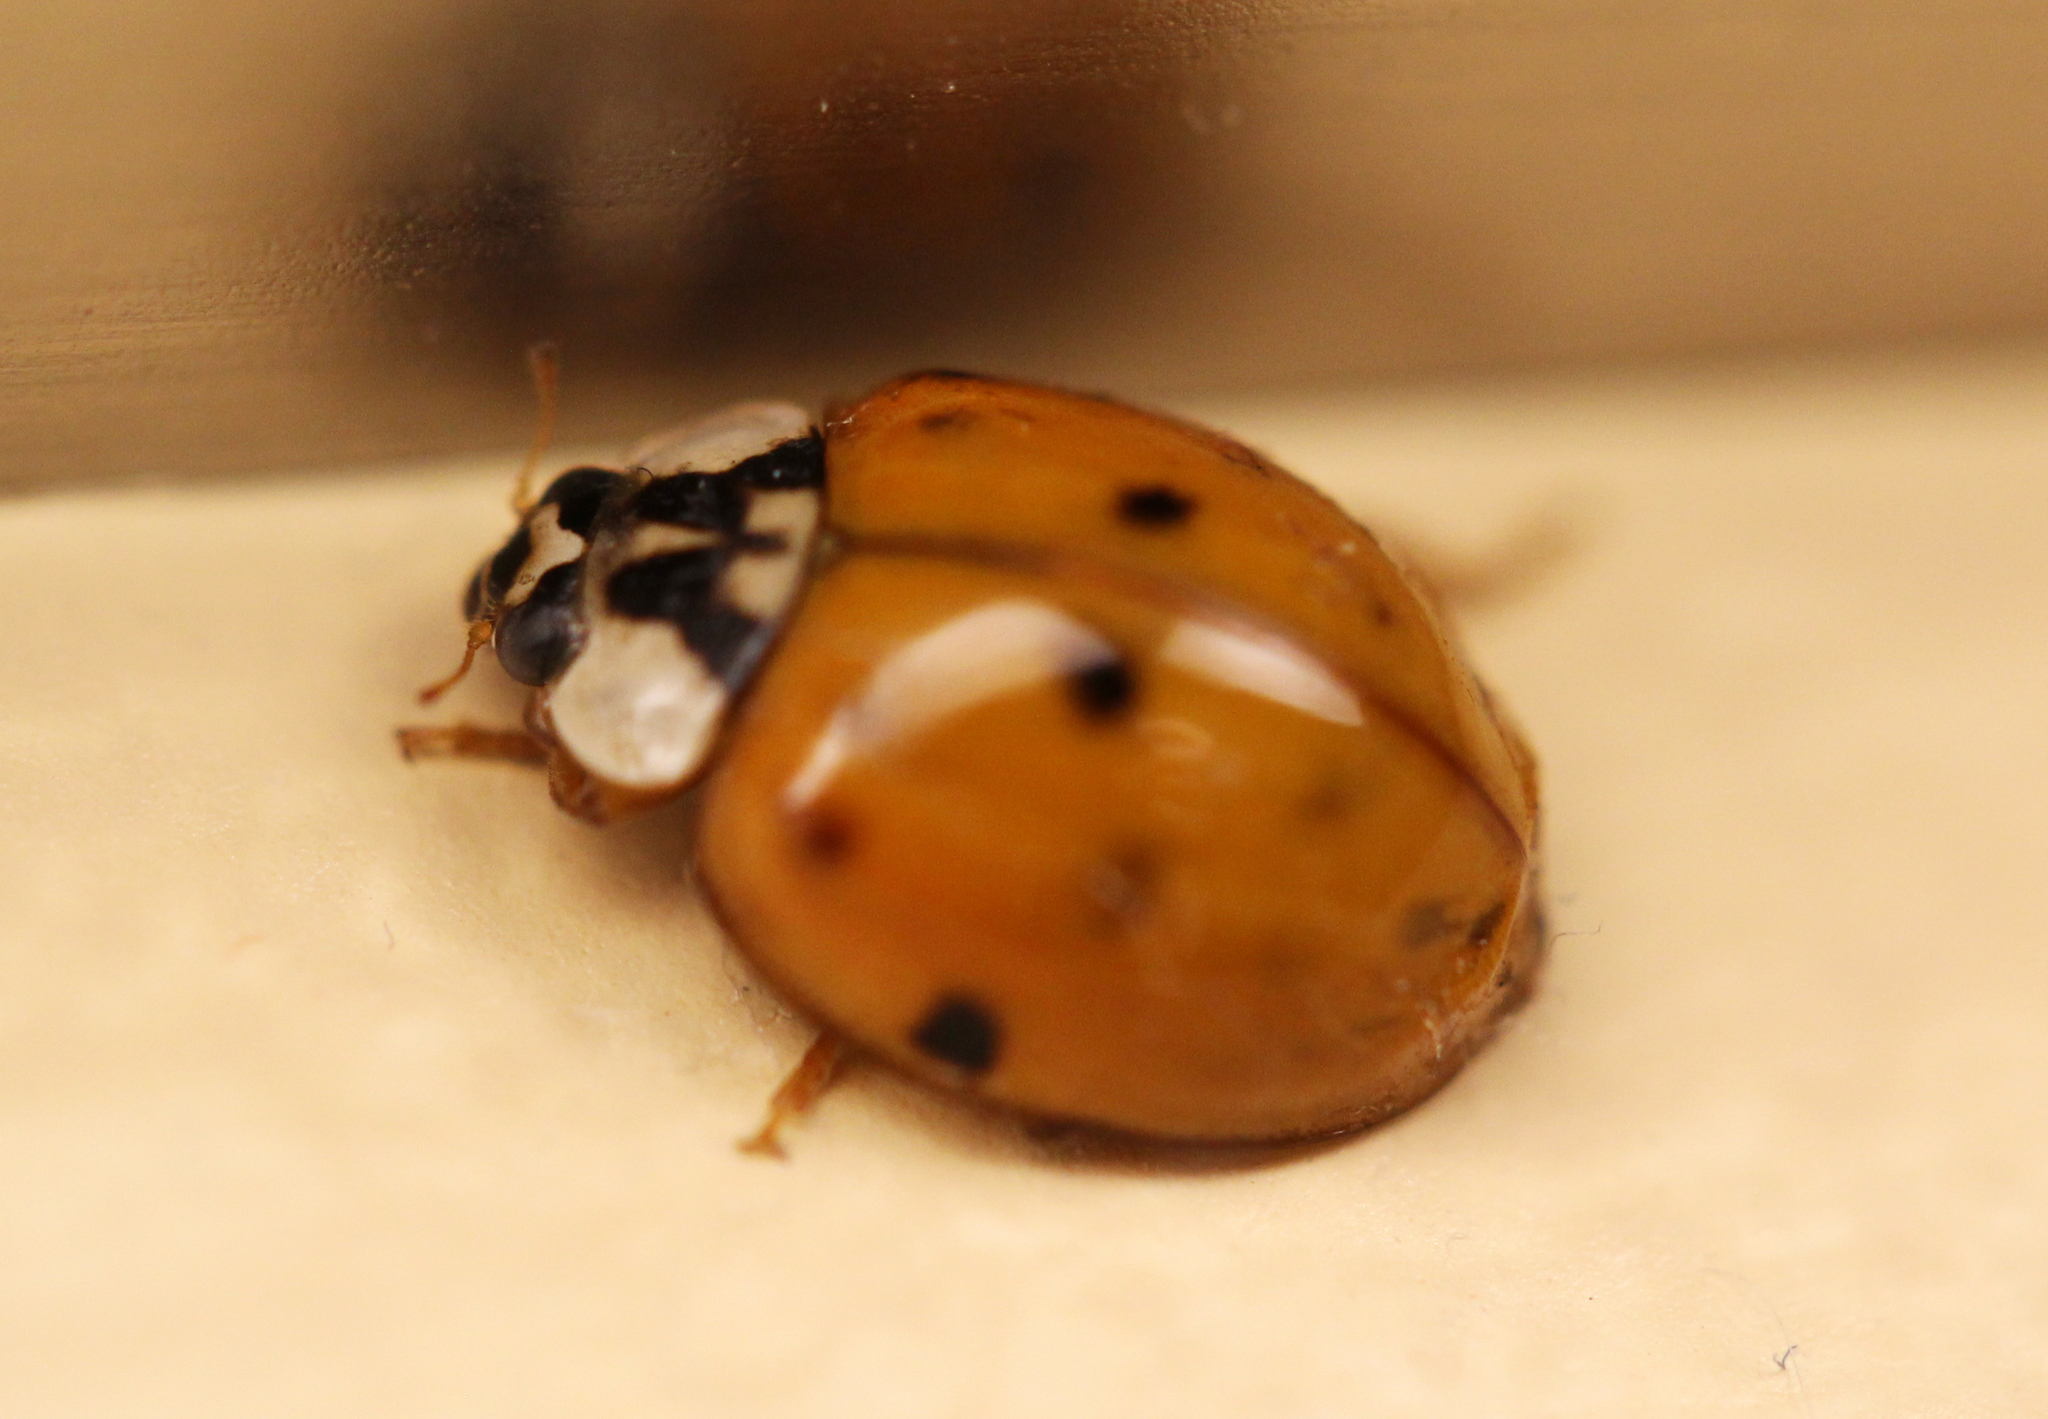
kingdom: Animalia
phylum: Arthropoda
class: Insecta
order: Coleoptera
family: Coccinellidae
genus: Harmonia
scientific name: Harmonia axyridis
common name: Harlequin ladybird
